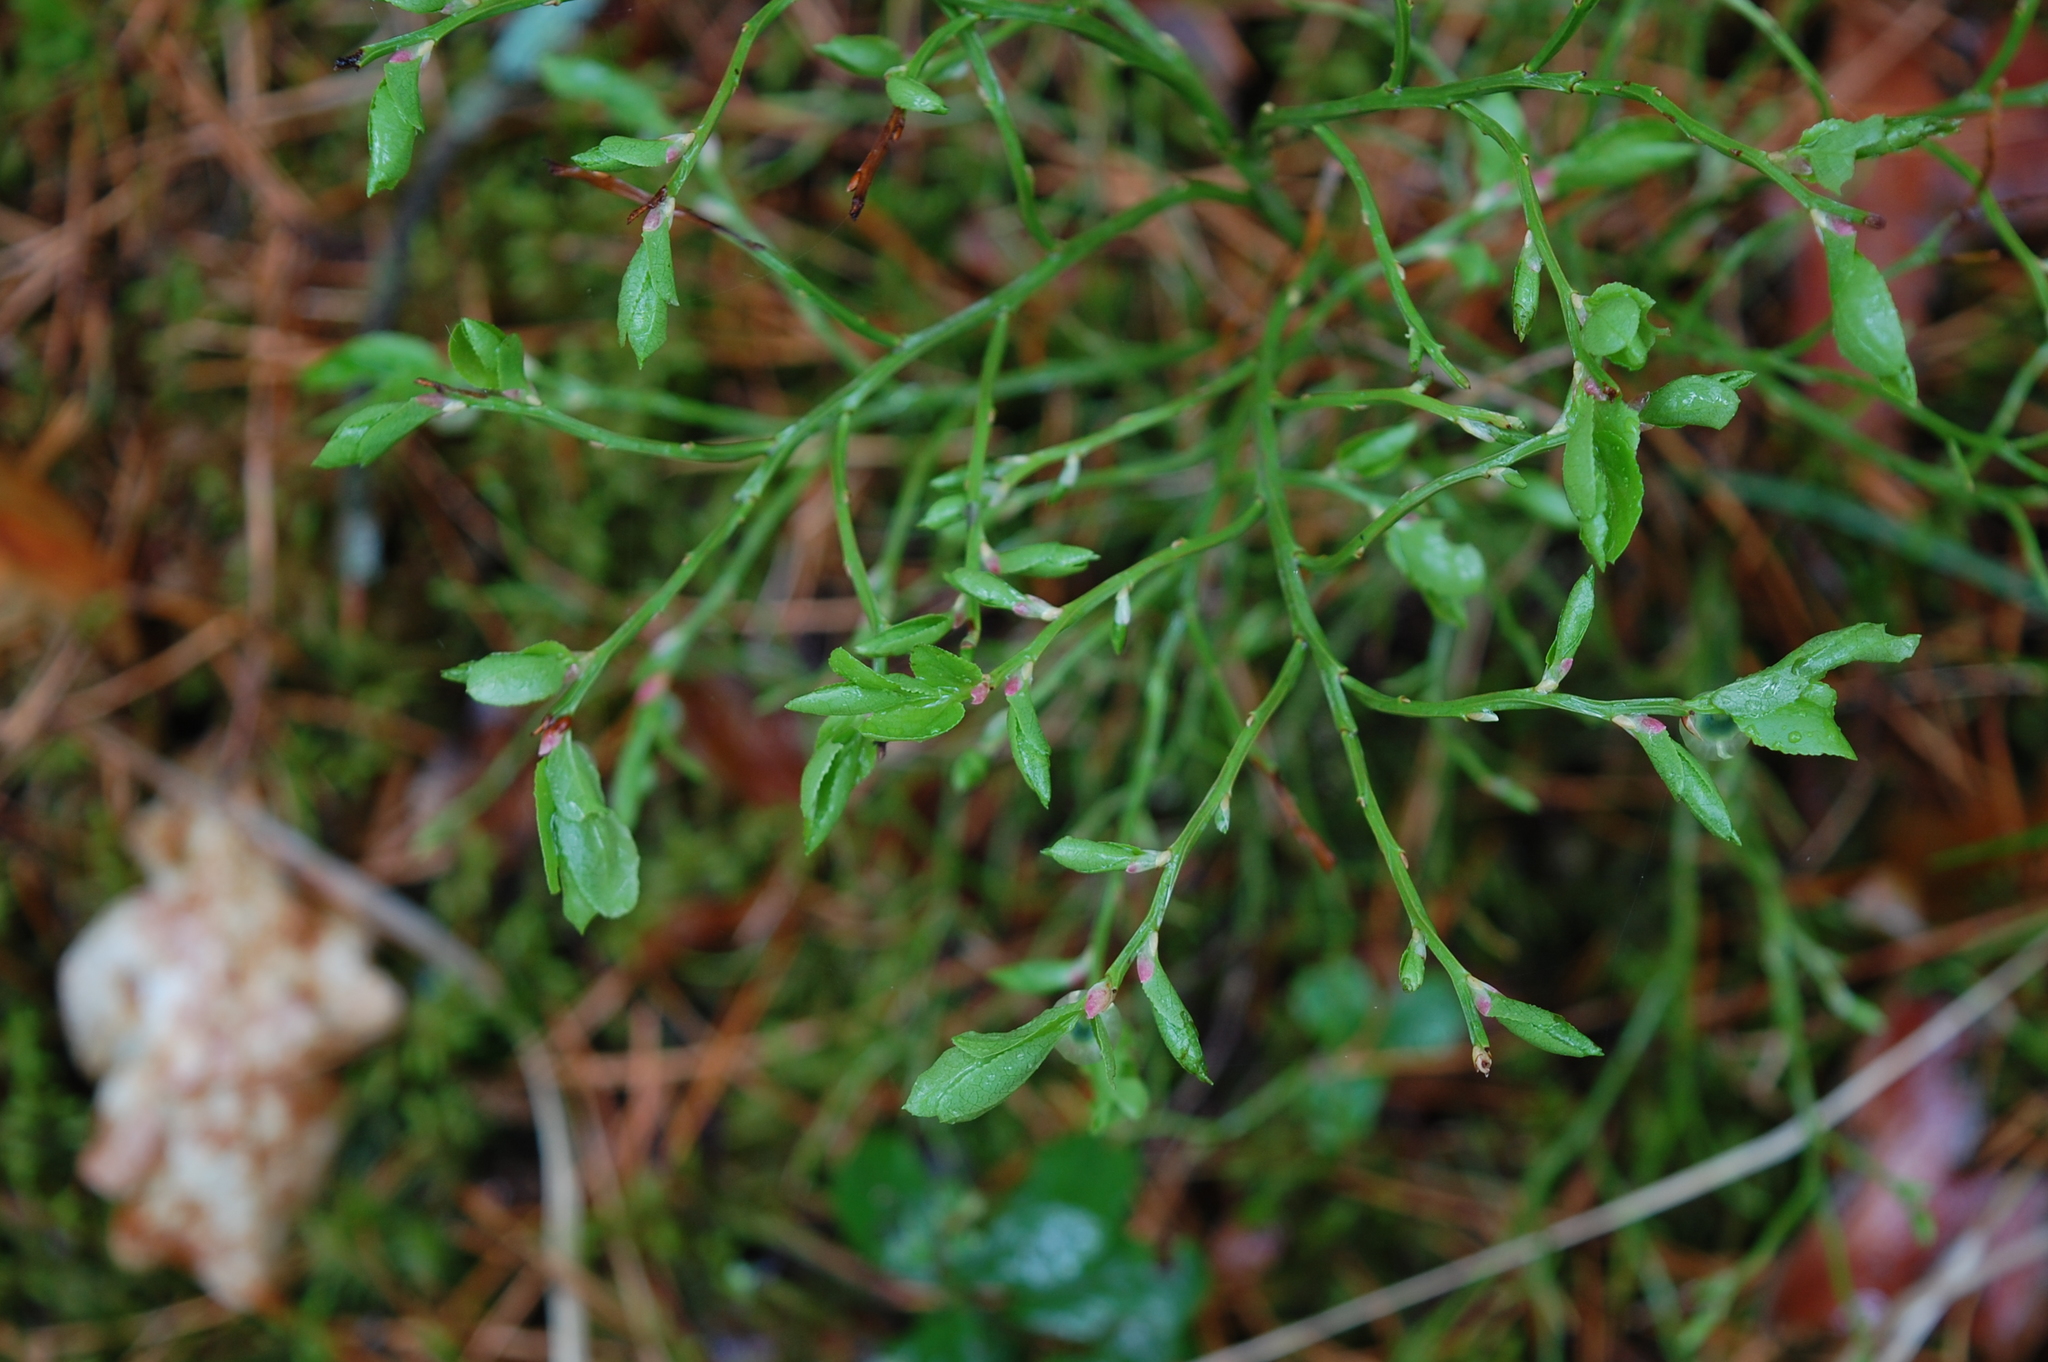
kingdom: Plantae
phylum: Tracheophyta
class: Magnoliopsida
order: Ericales
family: Ericaceae
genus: Vaccinium
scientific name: Vaccinium myrtillus
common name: Bilberry
